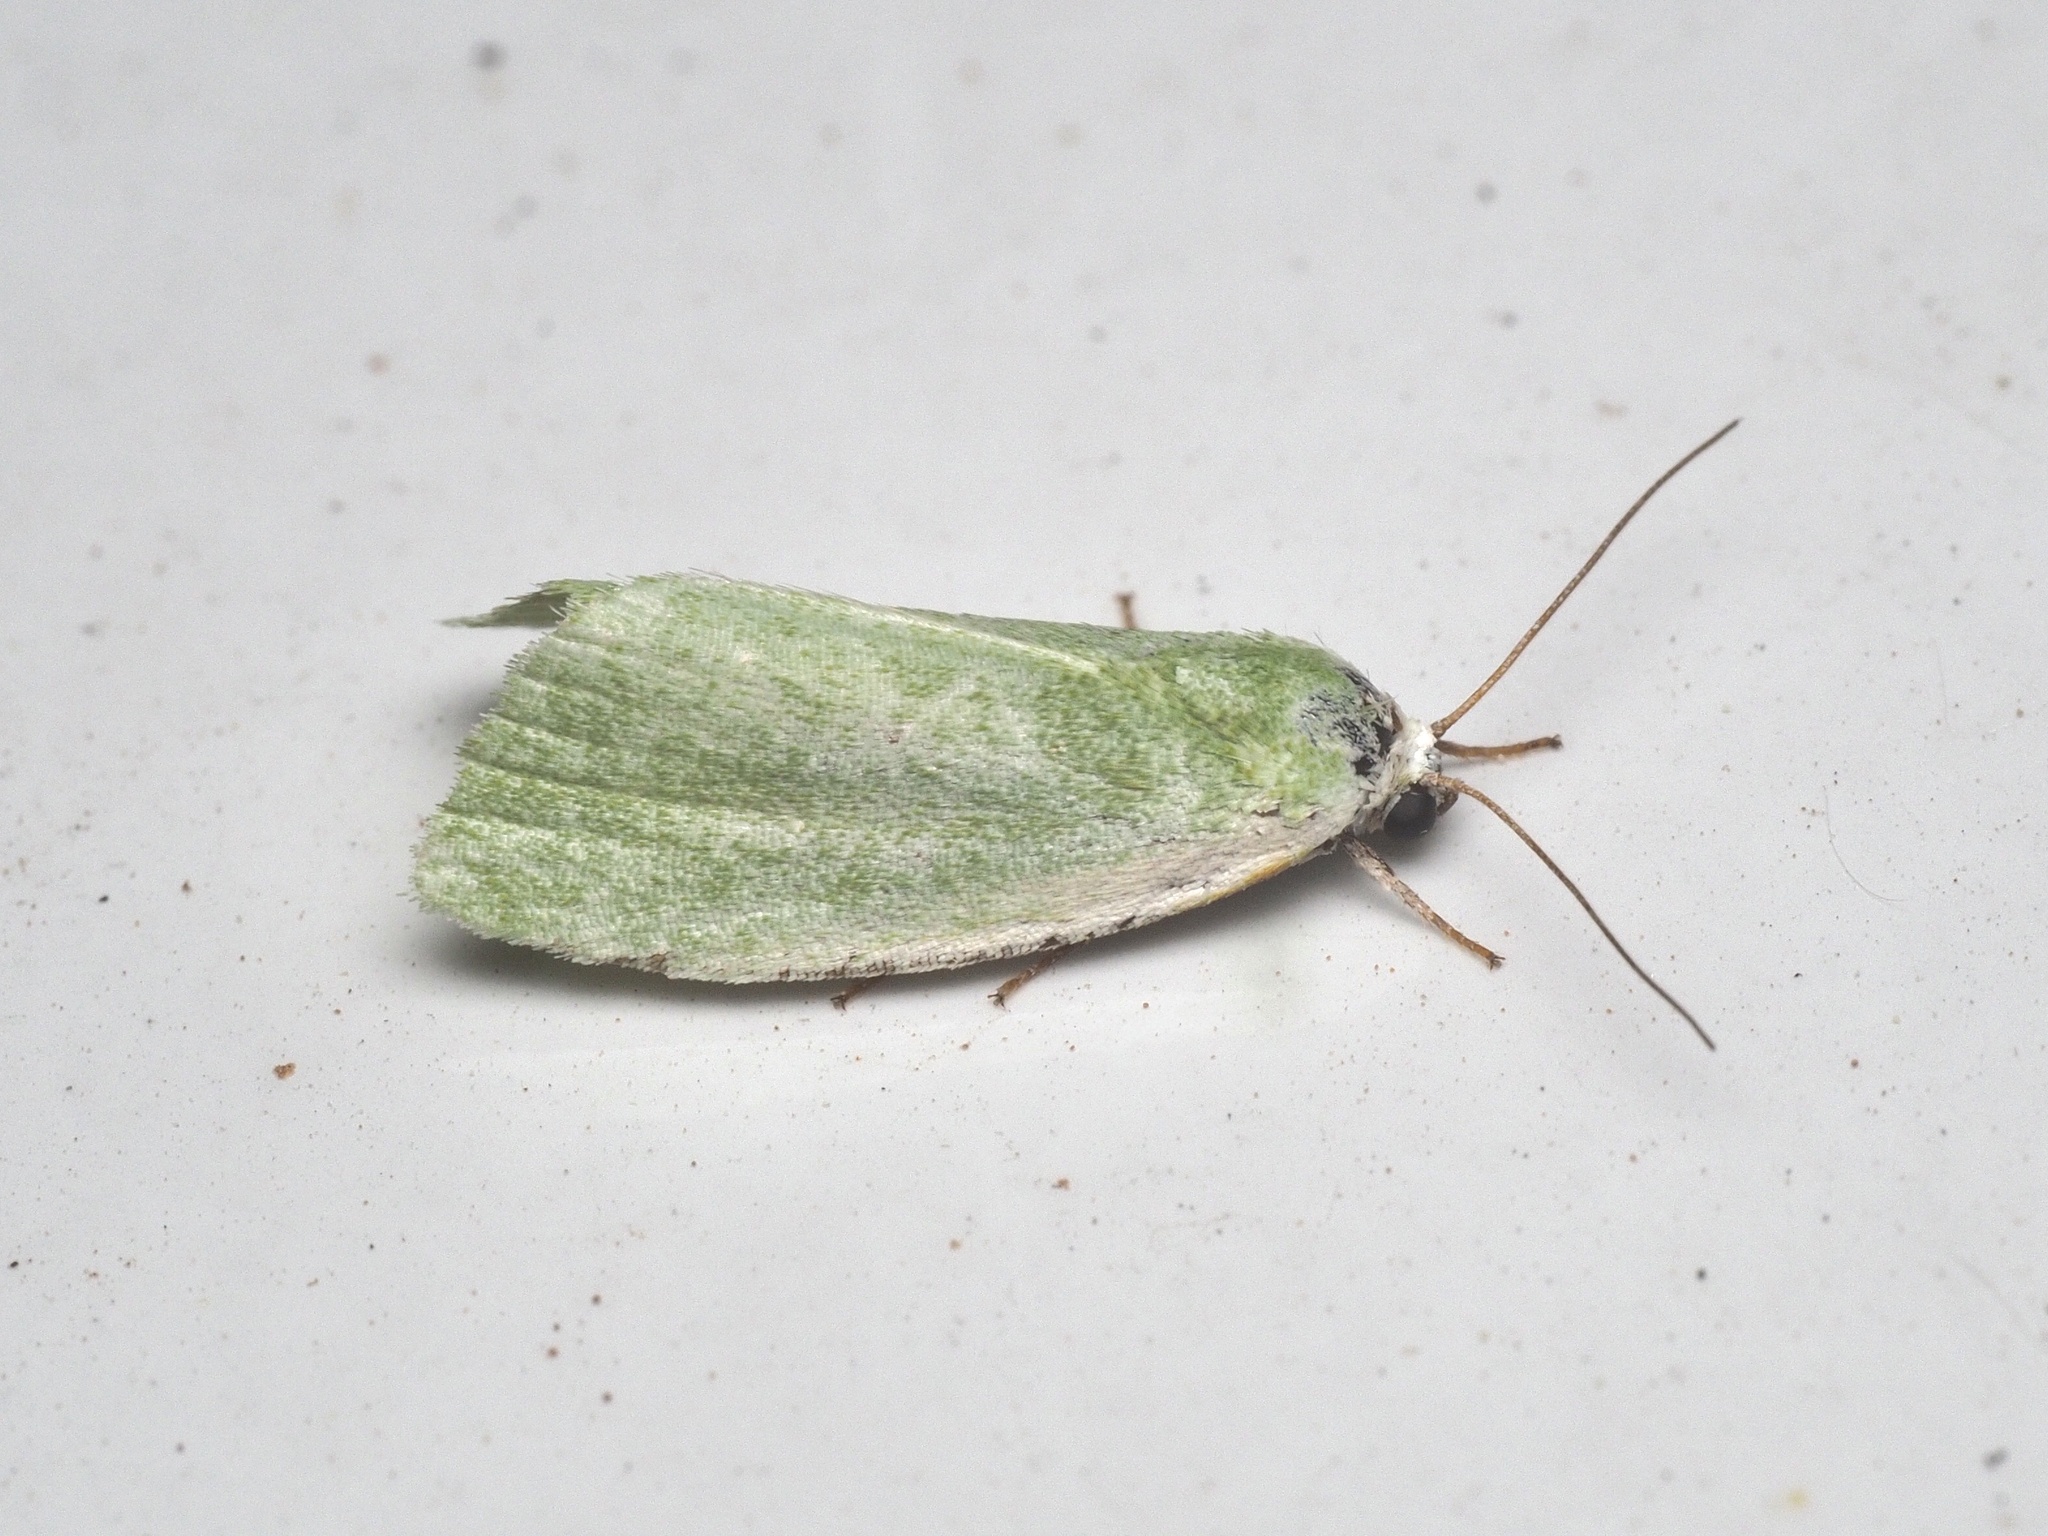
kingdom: Animalia
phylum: Arthropoda
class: Insecta
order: Lepidoptera
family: Nolidae
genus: Earias
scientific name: Earias clorana
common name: Cream-bordered green pea
